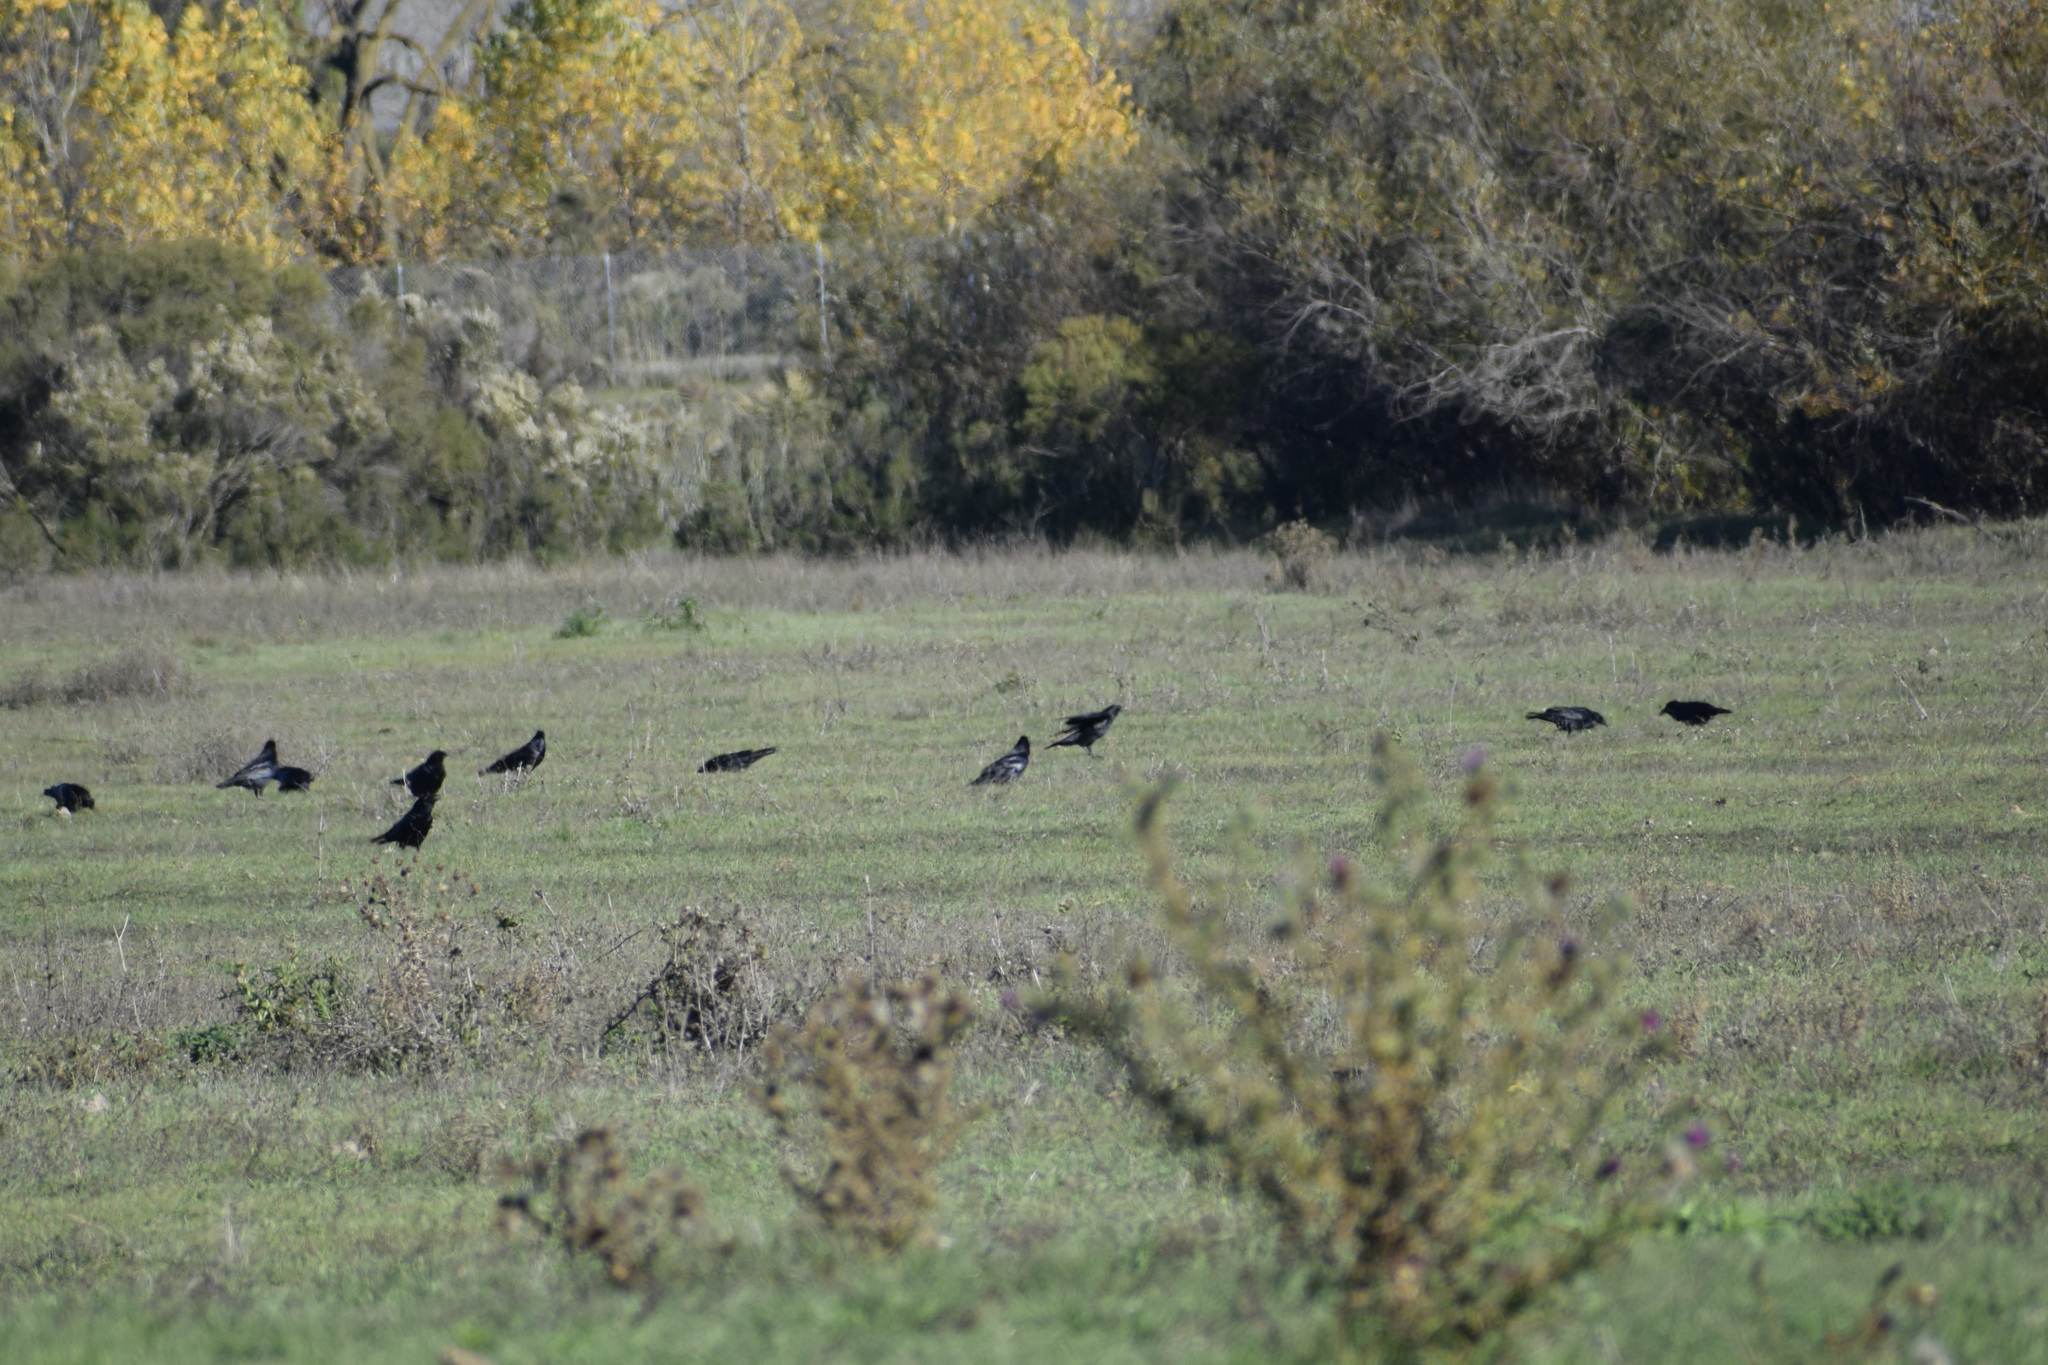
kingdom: Animalia
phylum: Chordata
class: Aves
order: Passeriformes
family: Corvidae
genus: Corvus
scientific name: Corvus brachyrhynchos
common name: American crow
